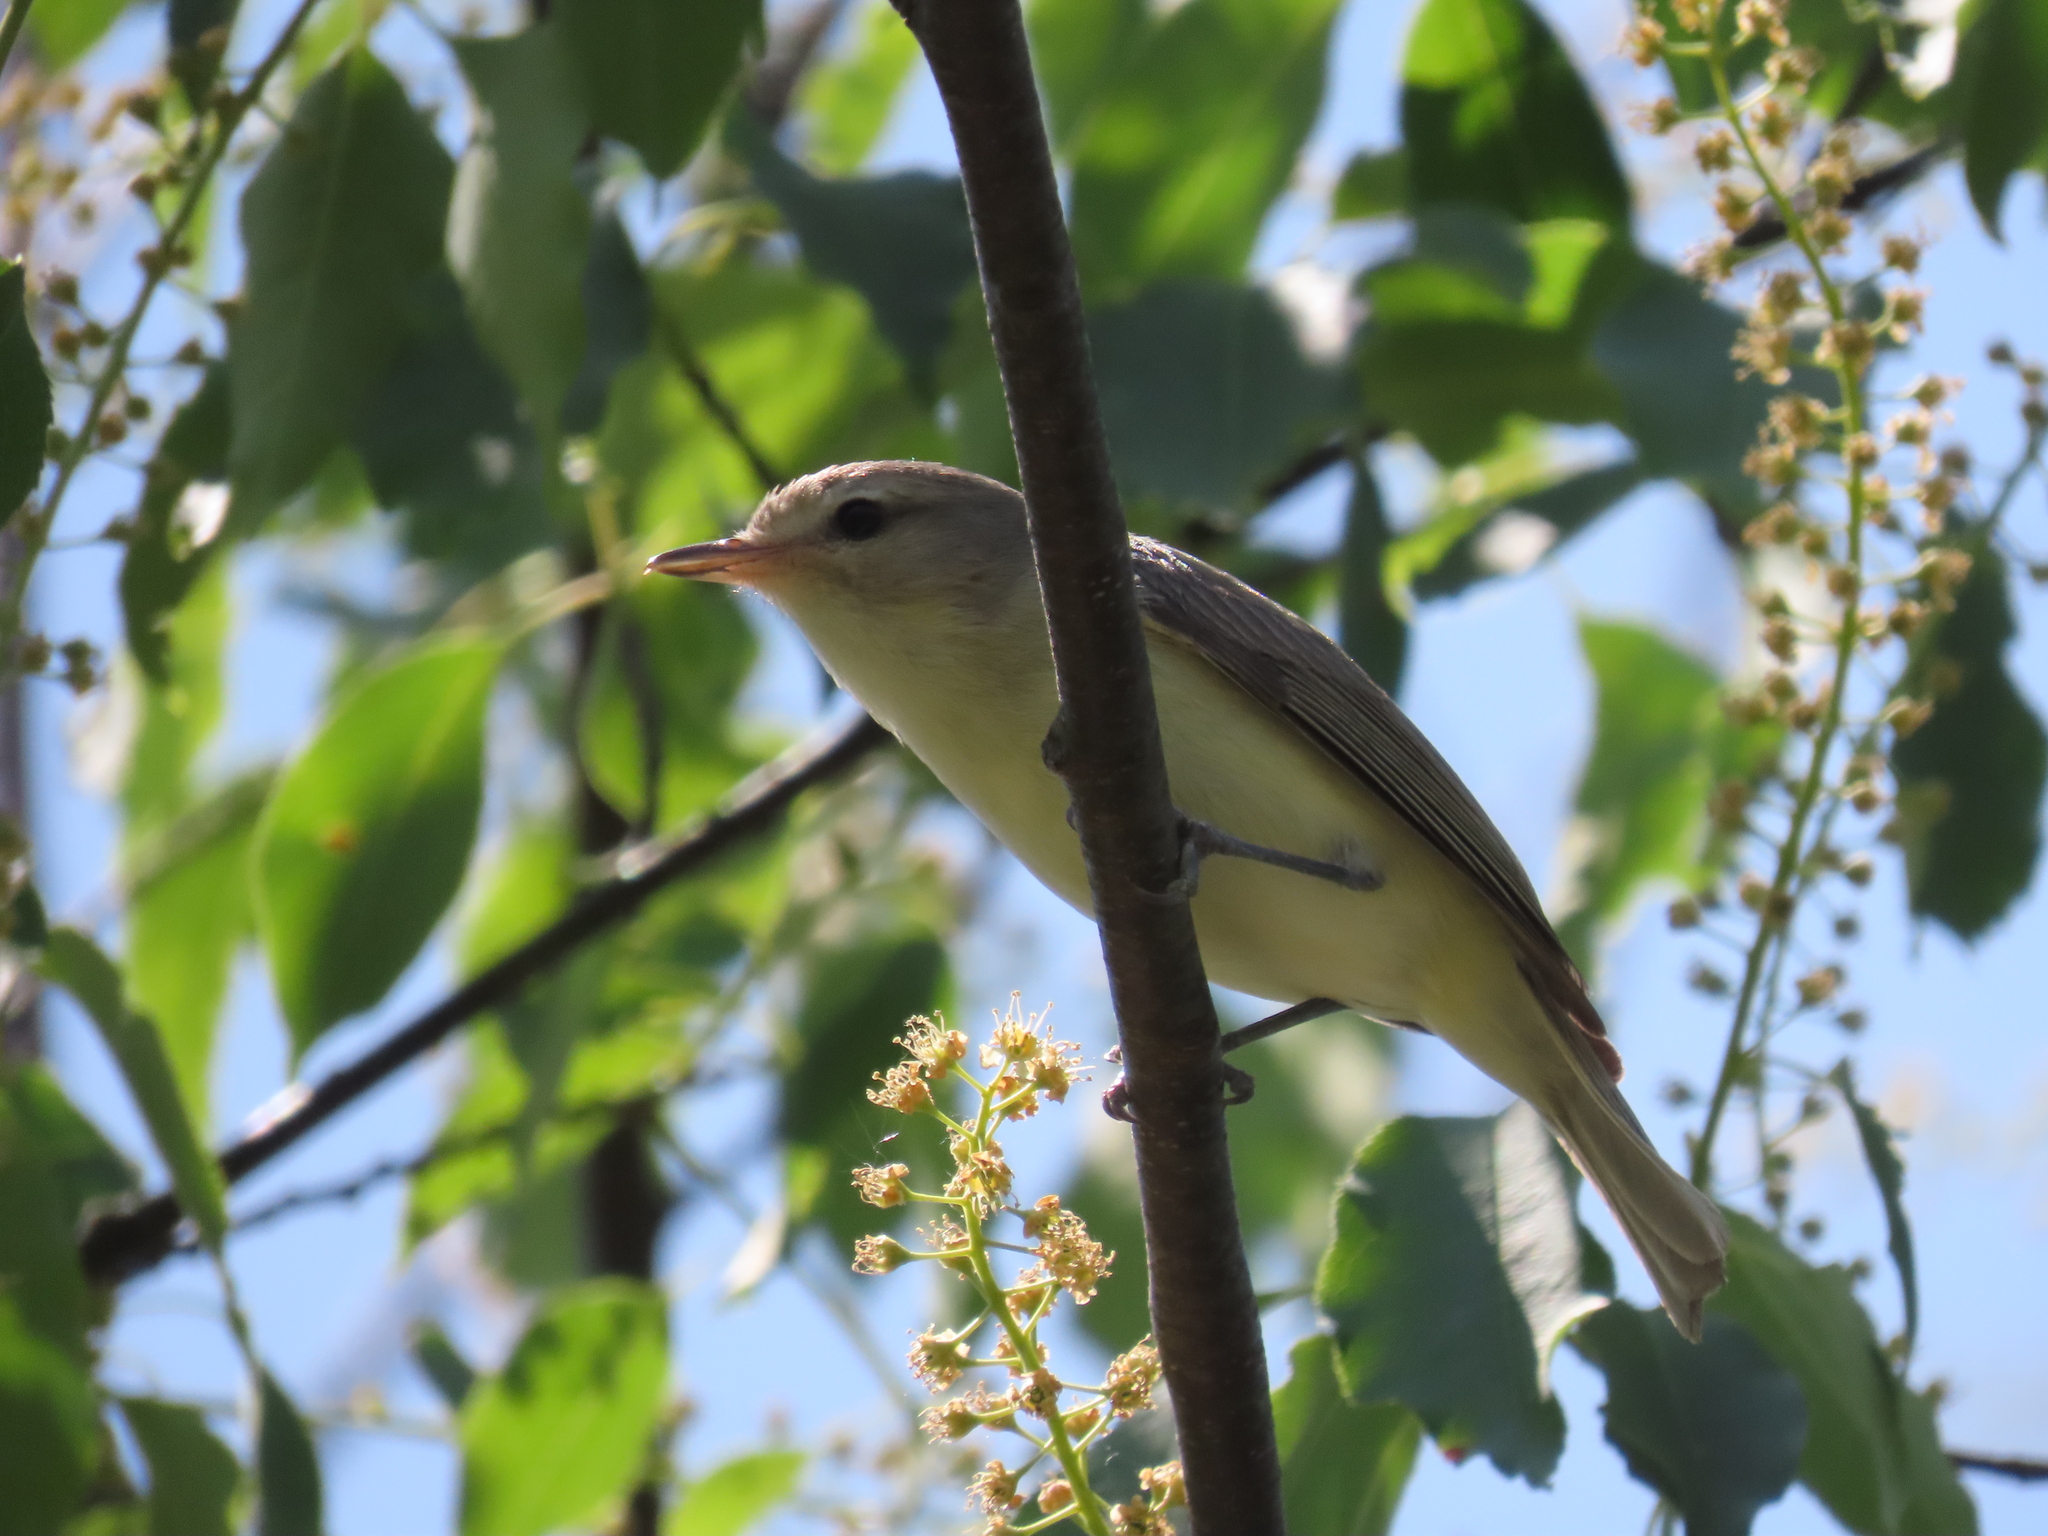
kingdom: Animalia
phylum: Chordata
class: Aves
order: Passeriformes
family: Vireonidae
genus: Vireo
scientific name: Vireo gilvus
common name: Warbling vireo
